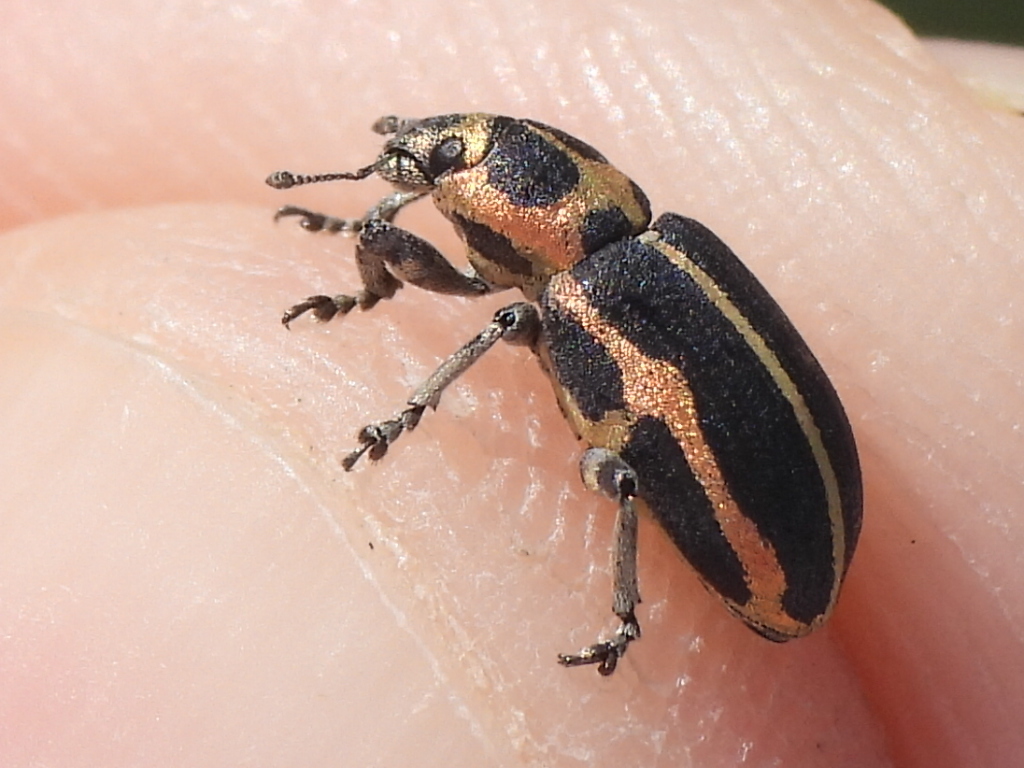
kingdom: Animalia
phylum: Arthropoda
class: Insecta
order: Coleoptera
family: Curculionidae
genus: Eudiagogus
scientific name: Eudiagogus pulcher
